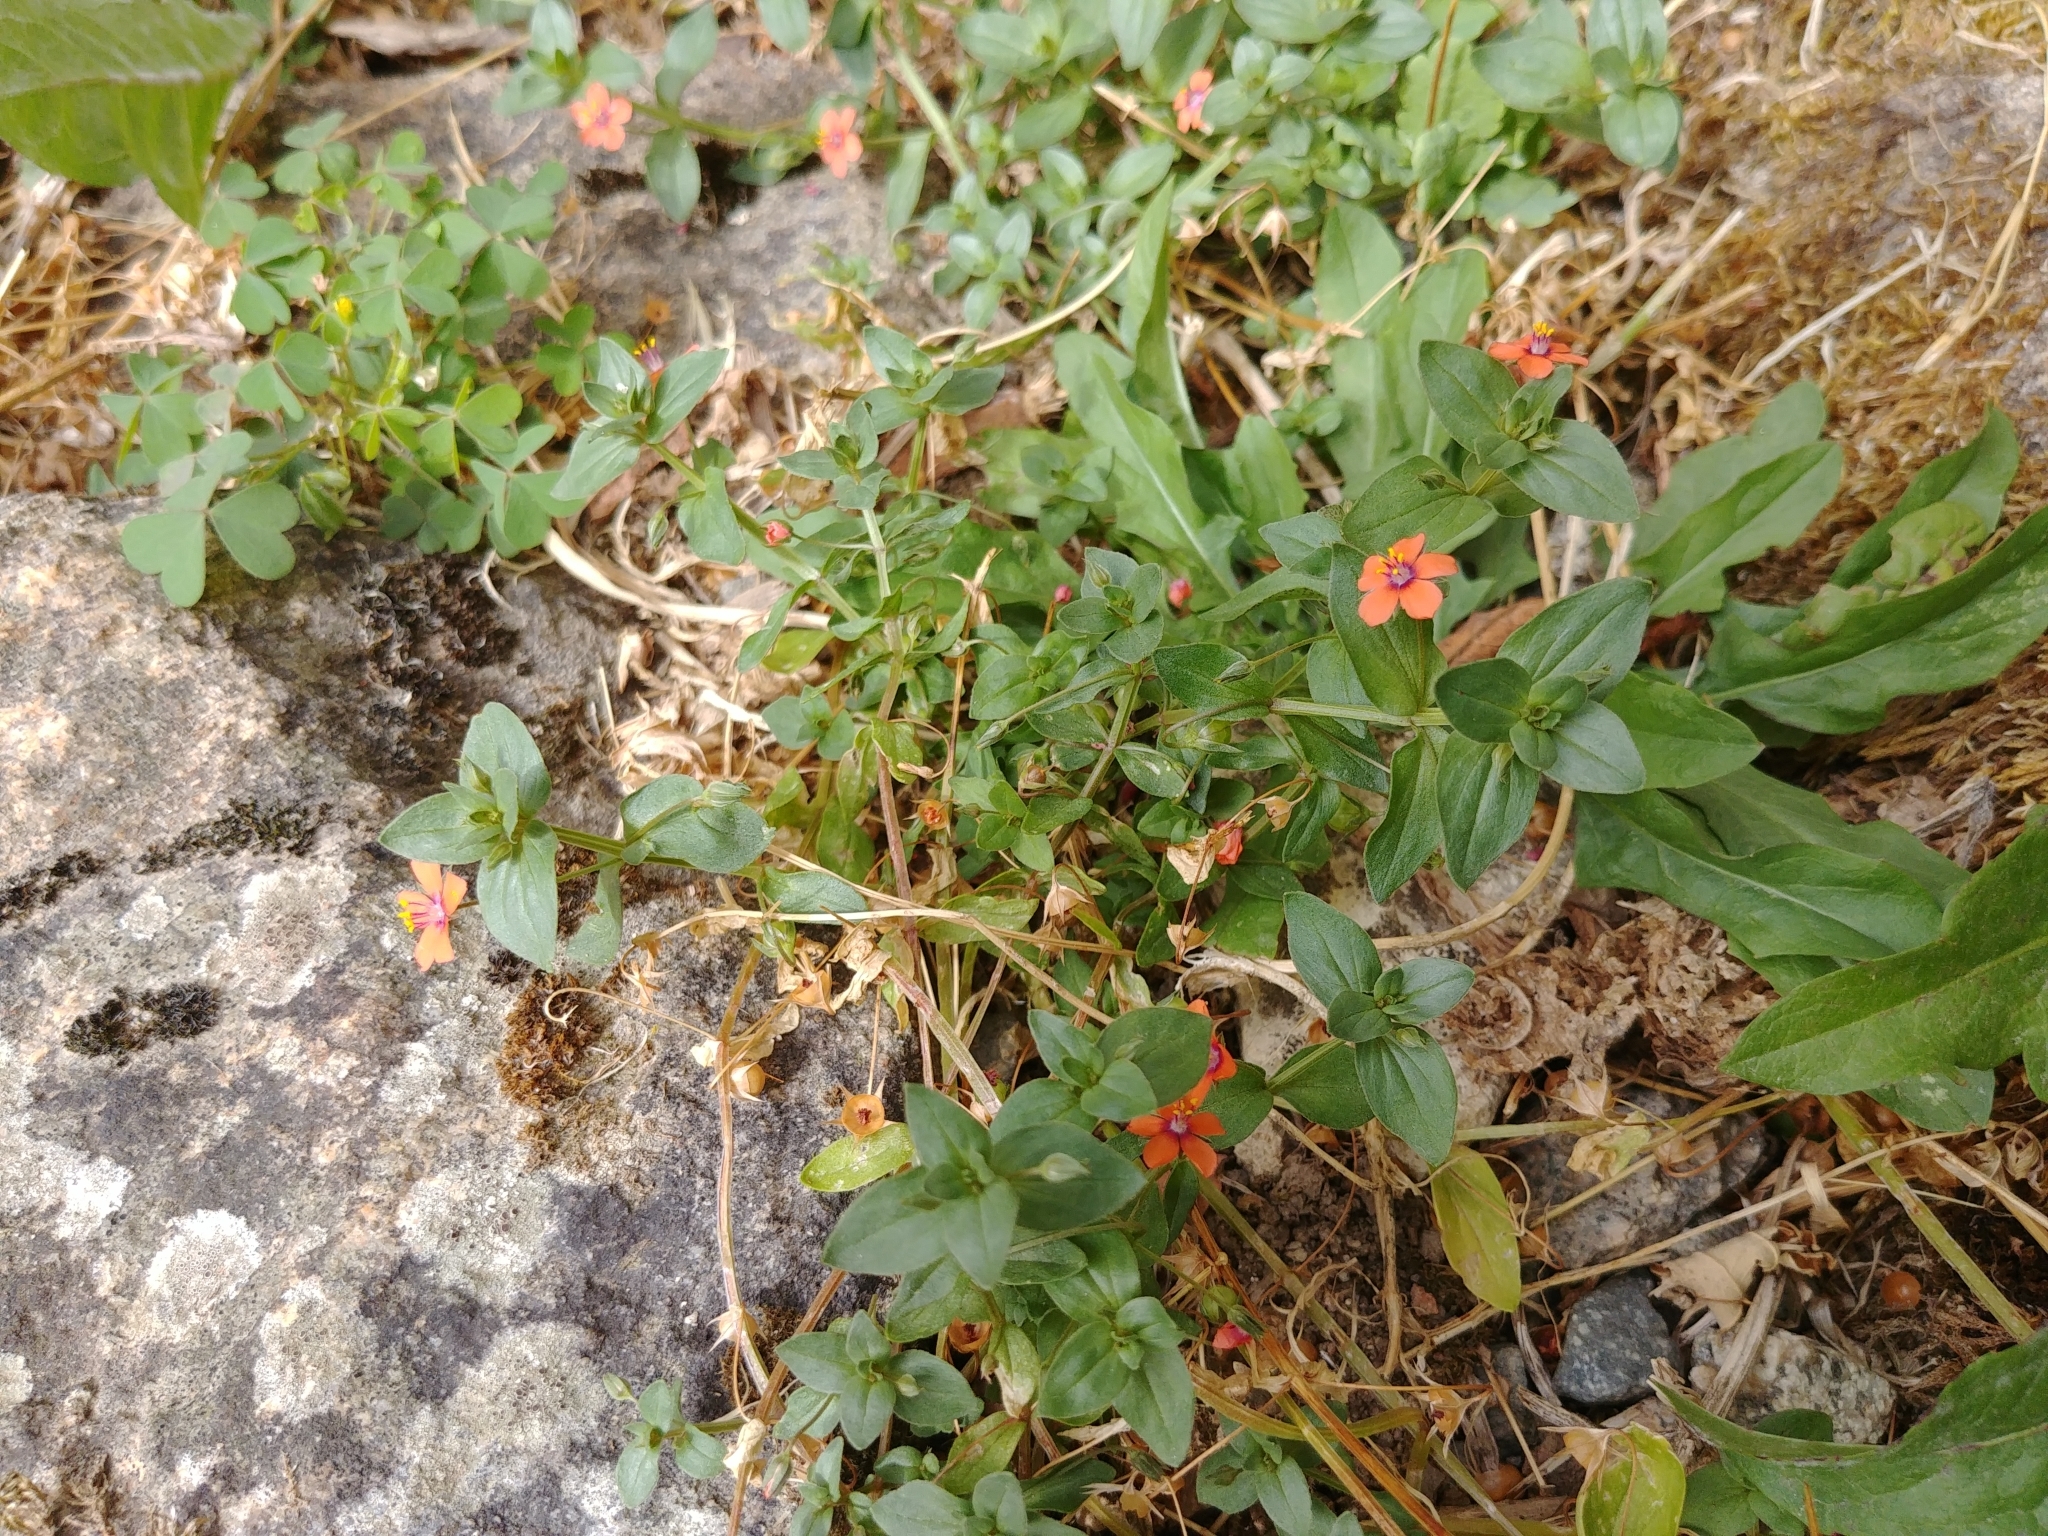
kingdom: Plantae
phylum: Tracheophyta
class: Magnoliopsida
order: Ericales
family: Primulaceae
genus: Lysimachia
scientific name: Lysimachia arvensis
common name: Scarlet pimpernel
